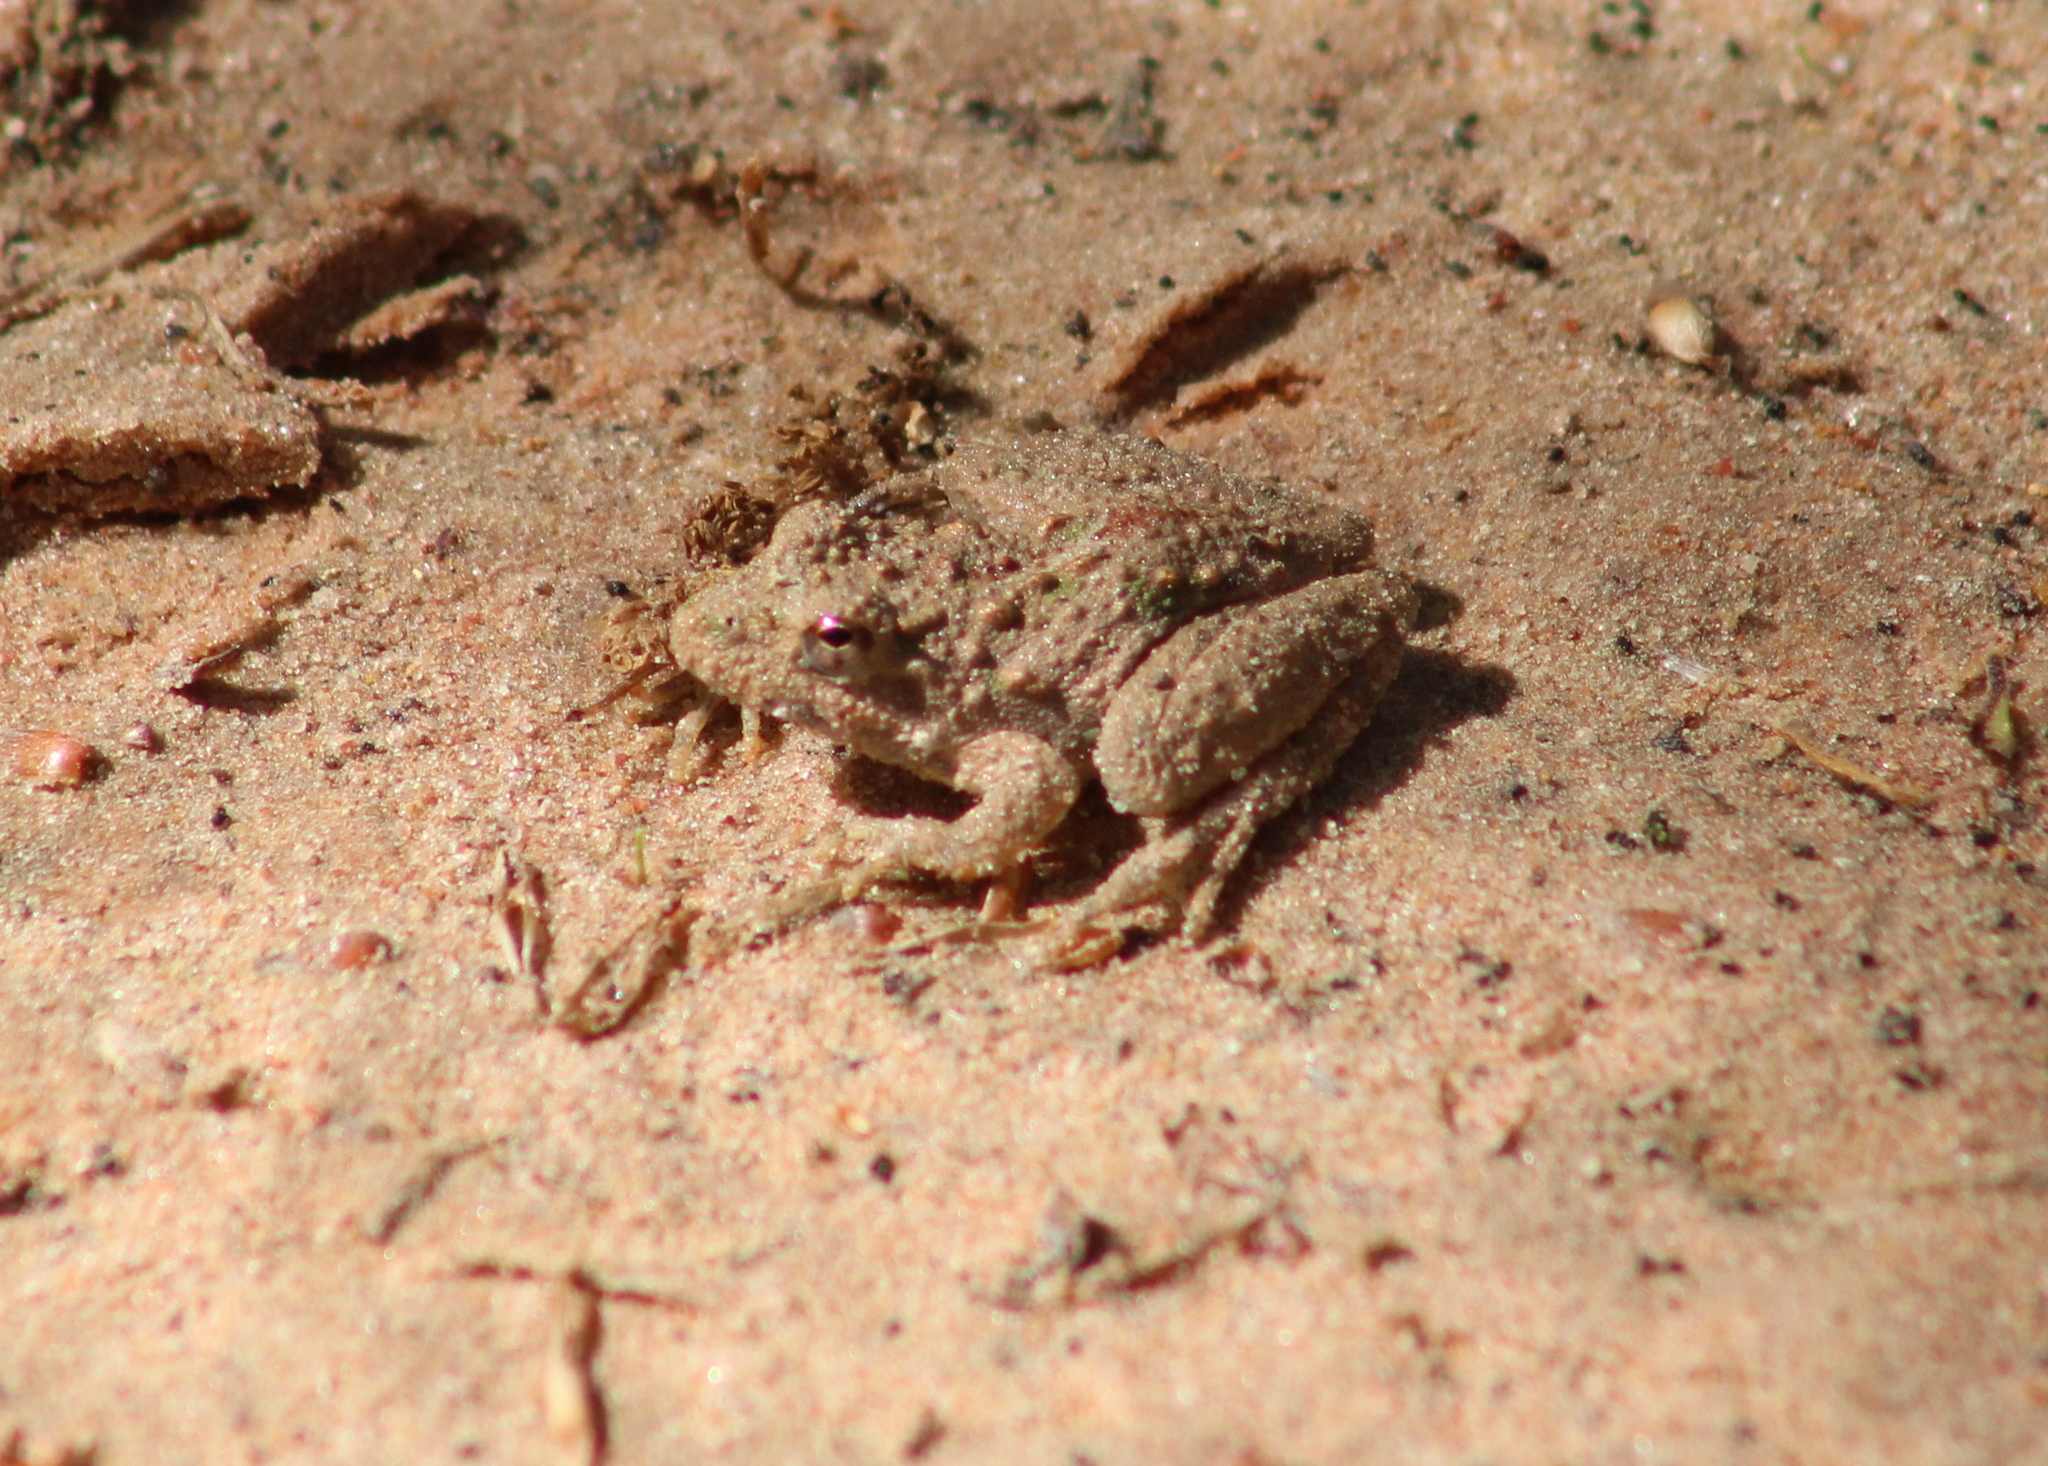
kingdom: Animalia
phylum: Chordata
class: Amphibia
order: Anura
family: Hylidae
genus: Acris
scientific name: Acris blanchardi
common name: Blanchard's cricket frog
